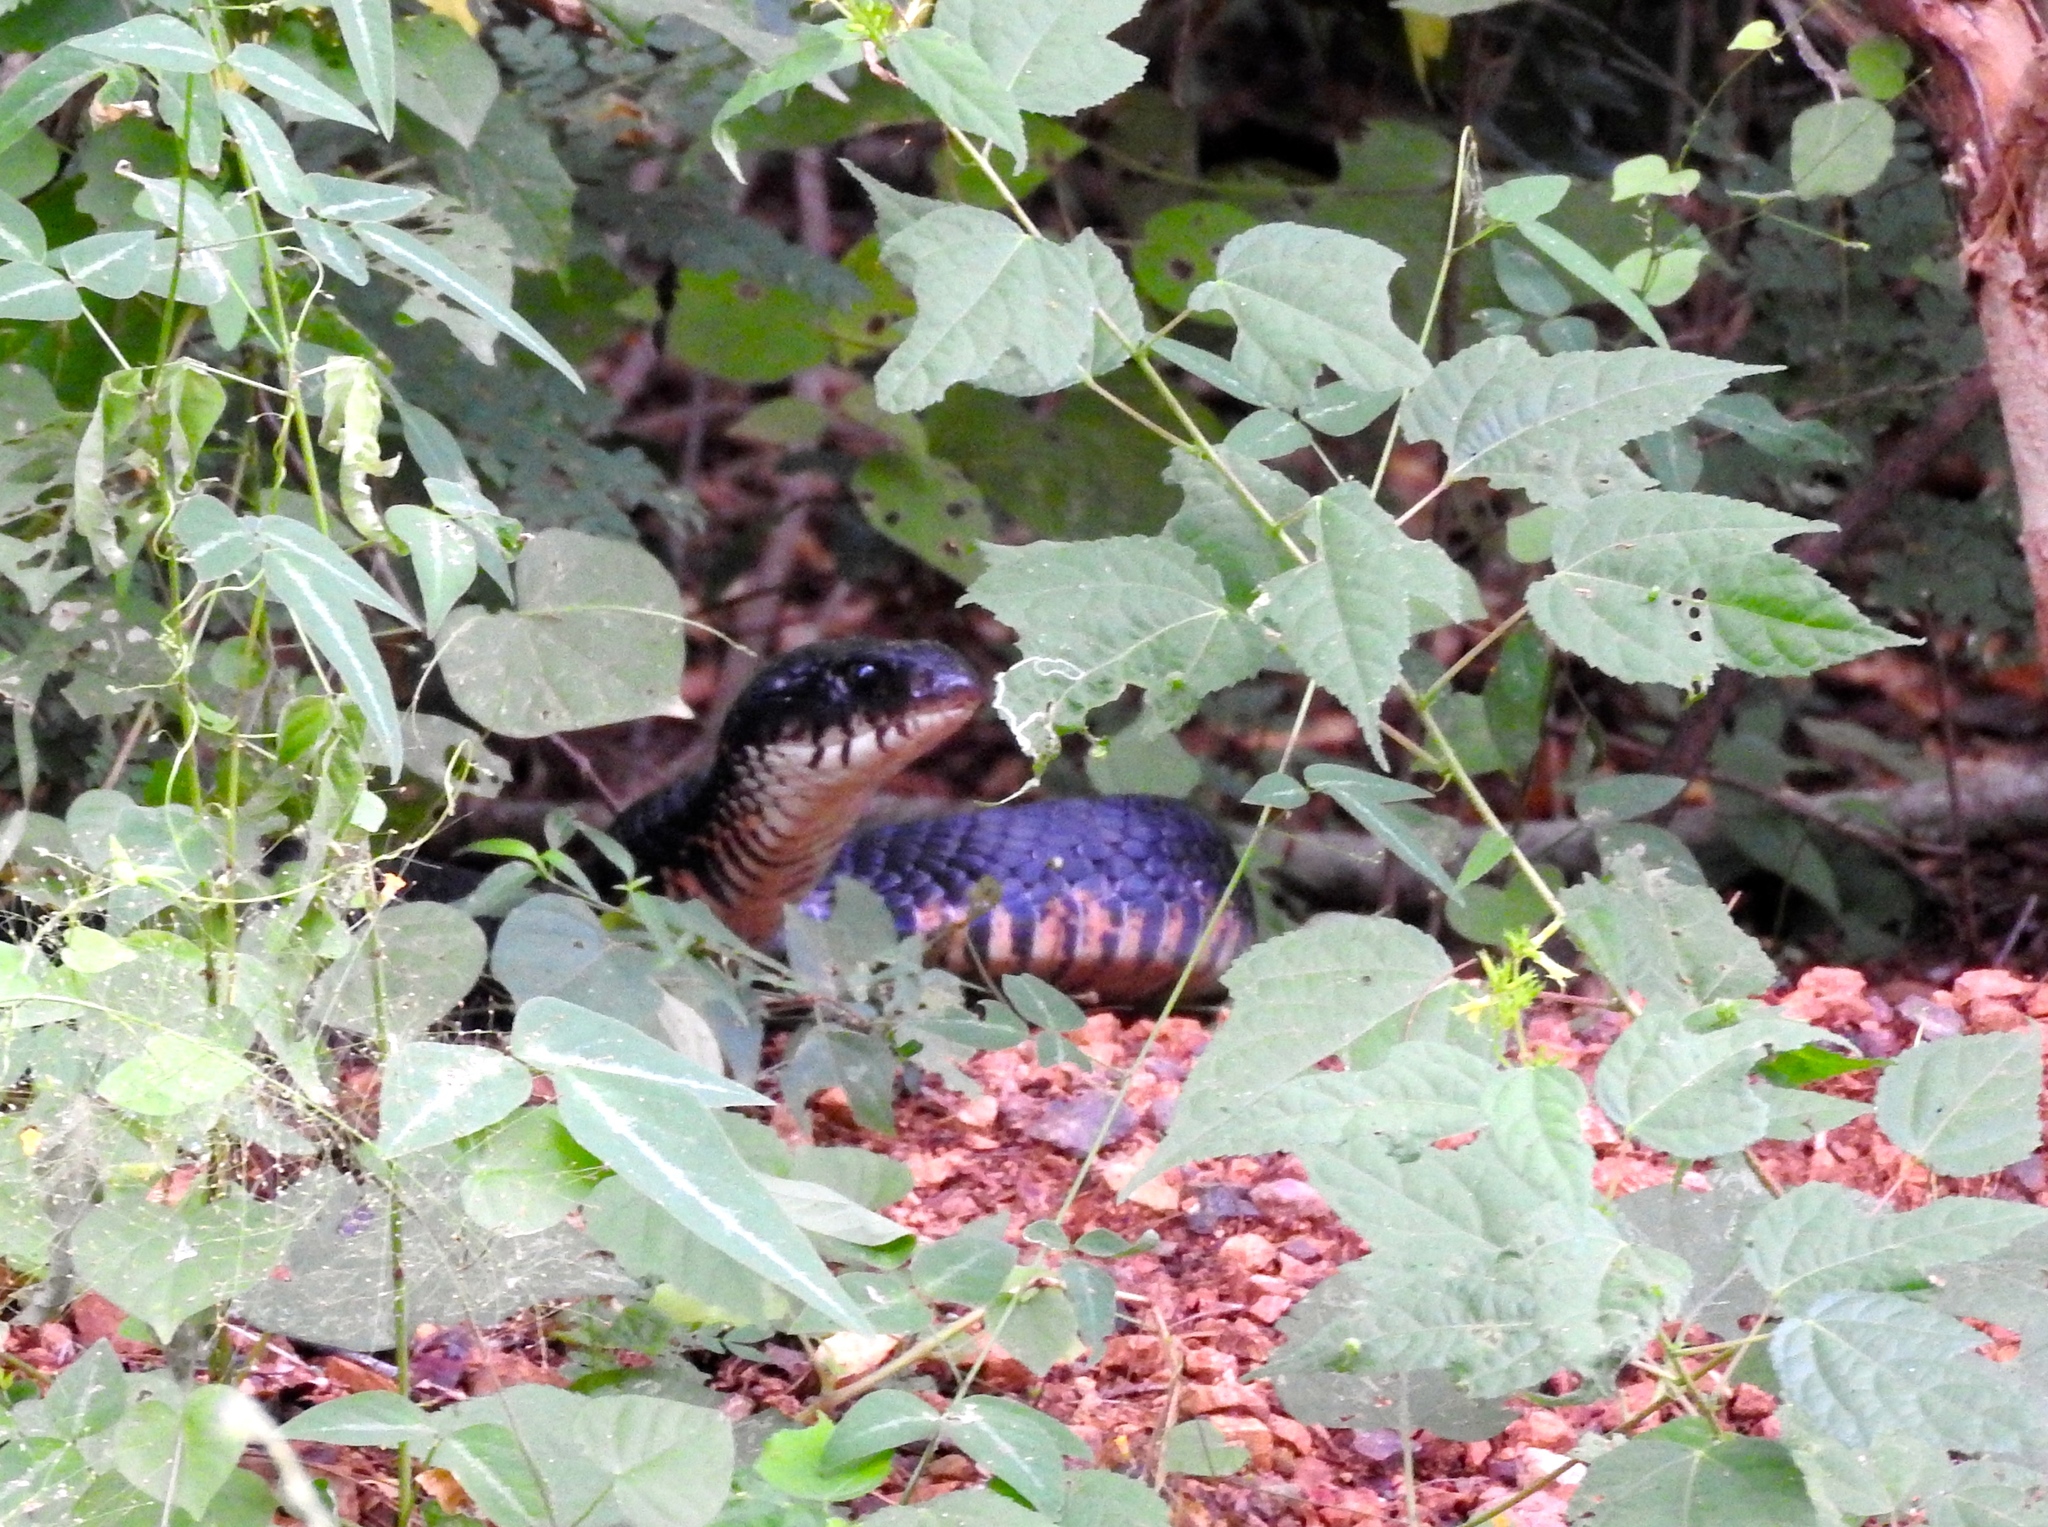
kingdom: Animalia
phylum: Chordata
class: Squamata
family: Colubridae
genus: Drymarchon
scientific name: Drymarchon melanurus
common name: Central american indigo snake
